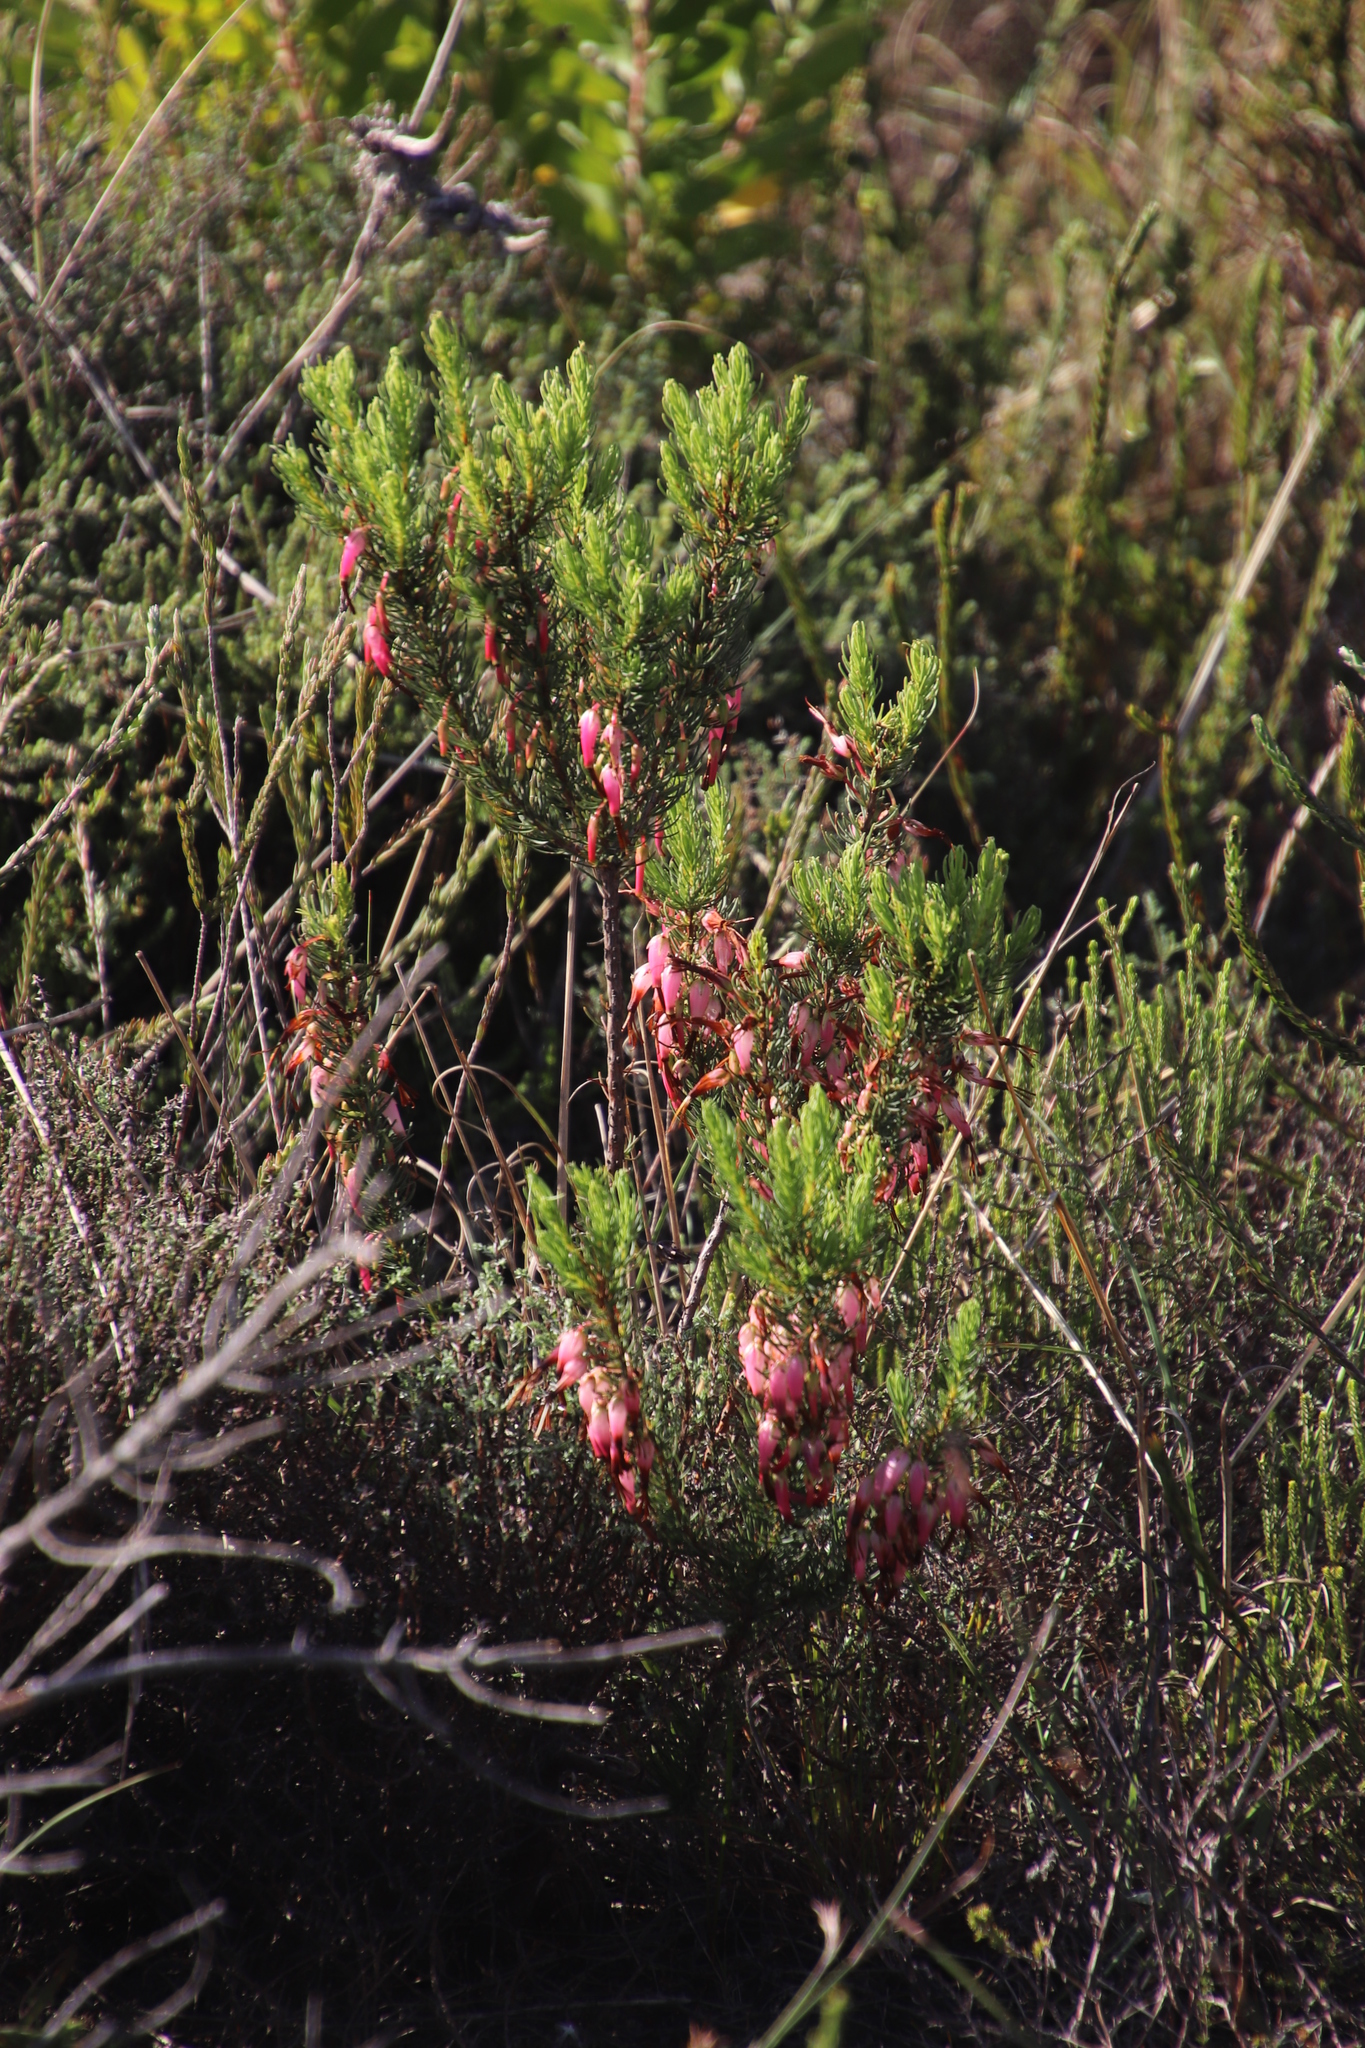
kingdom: Plantae
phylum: Tracheophyta
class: Magnoliopsida
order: Ericales
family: Ericaceae
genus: Erica
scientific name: Erica plukenetii
